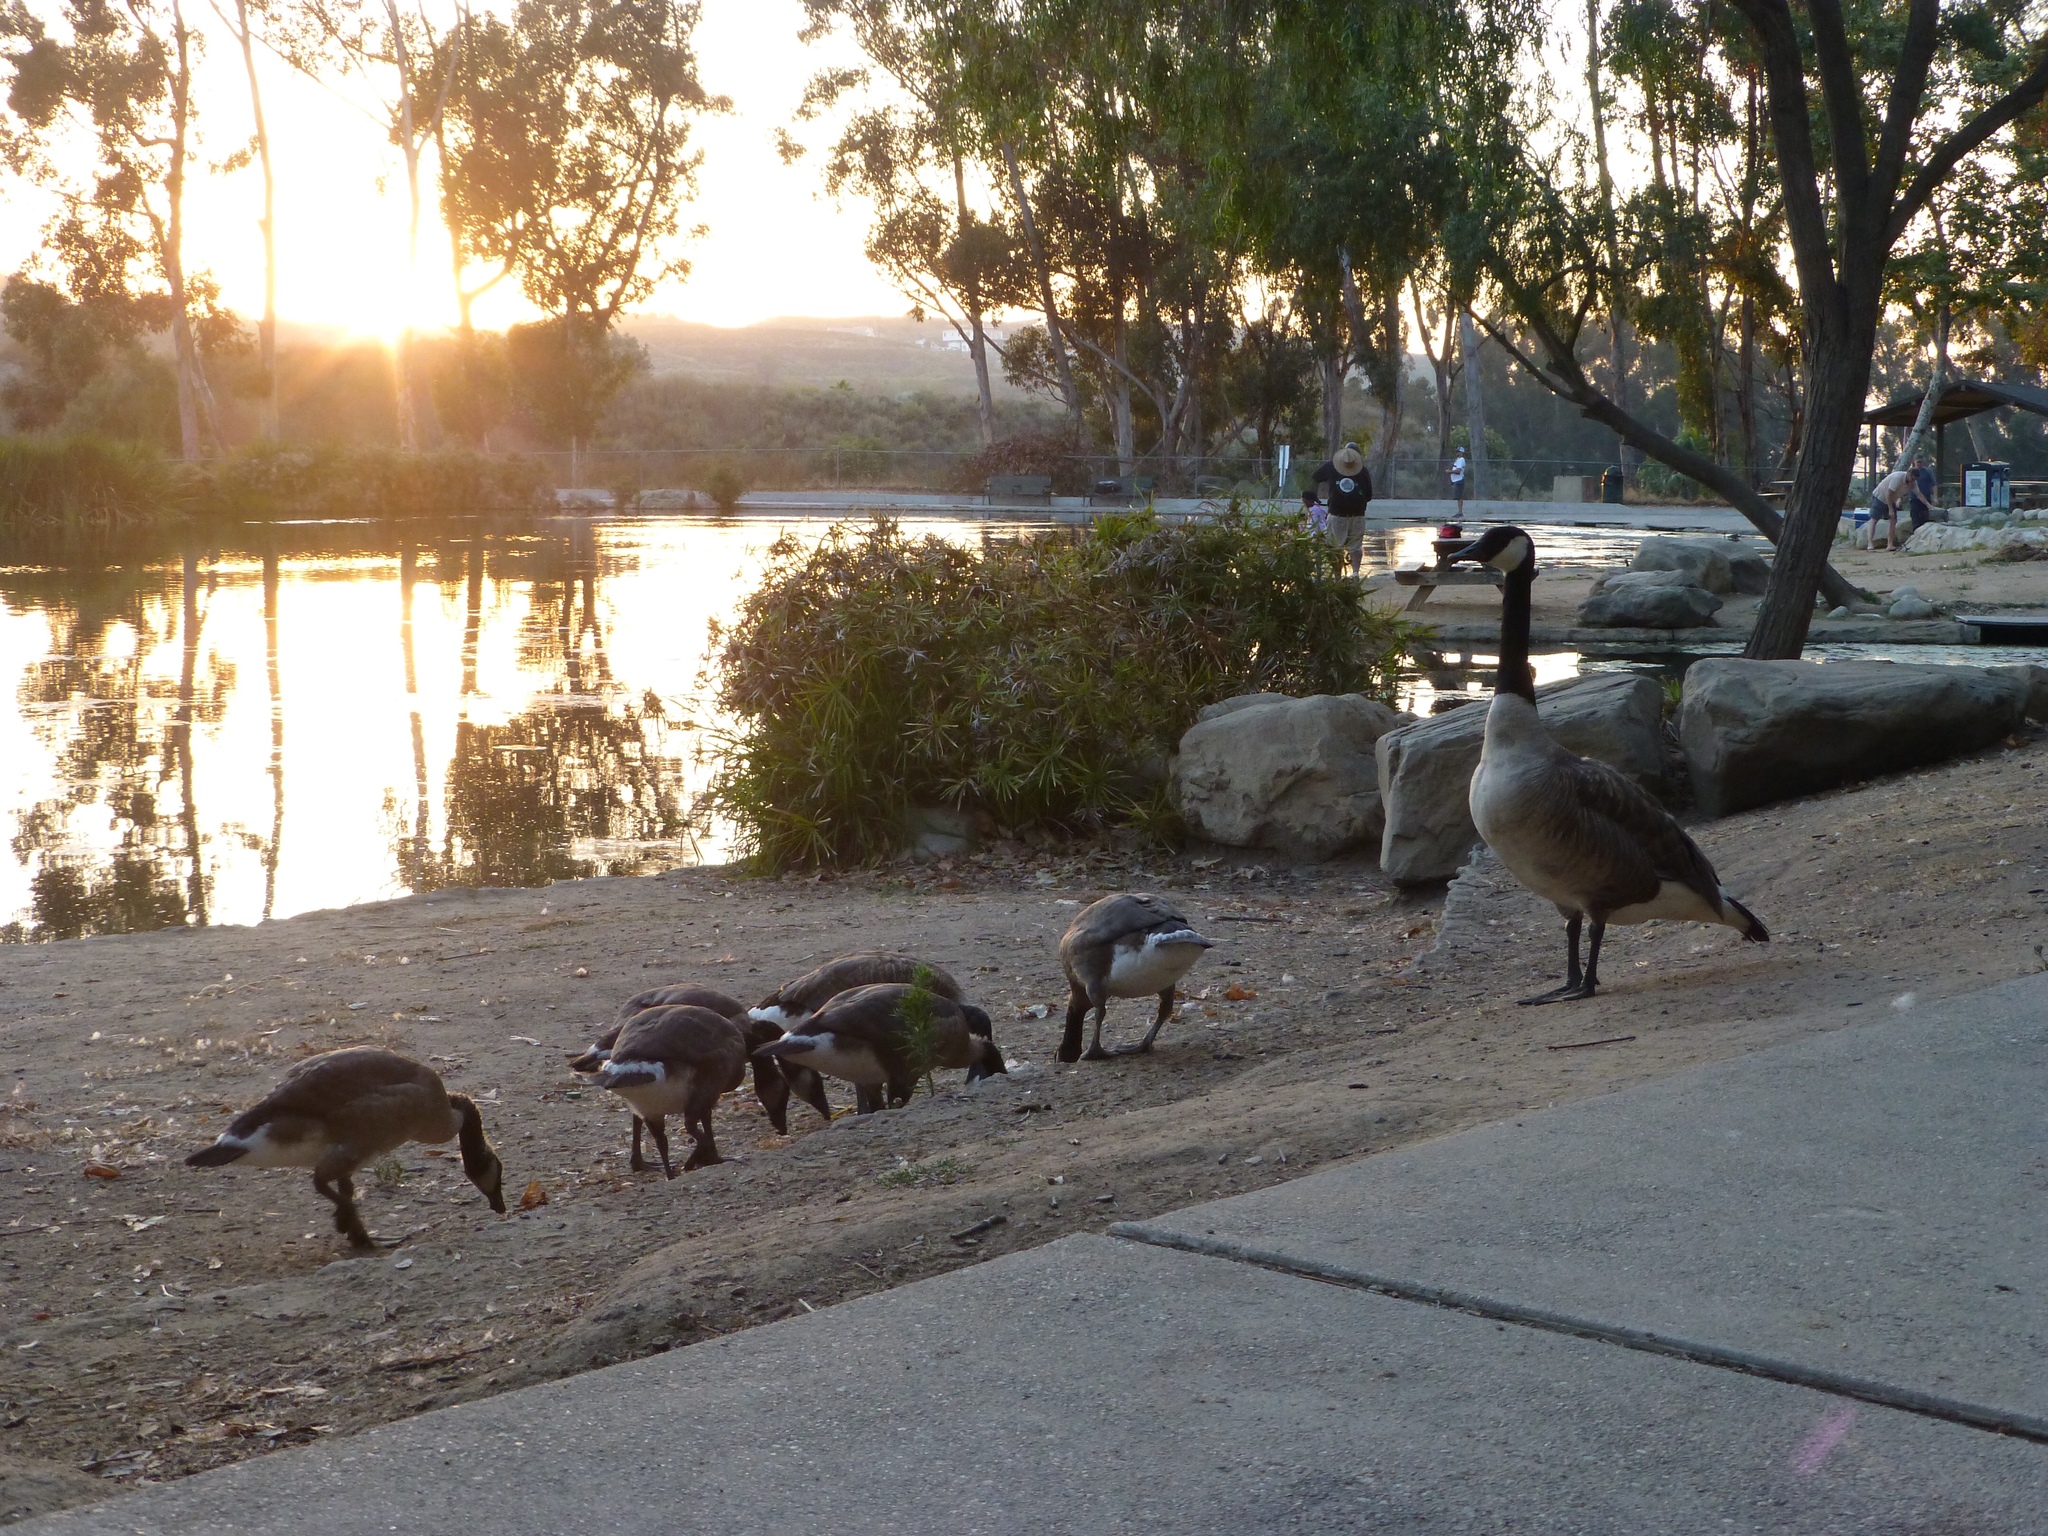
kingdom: Animalia
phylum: Chordata
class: Aves
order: Anseriformes
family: Anatidae
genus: Branta
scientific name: Branta canadensis
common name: Canada goose
